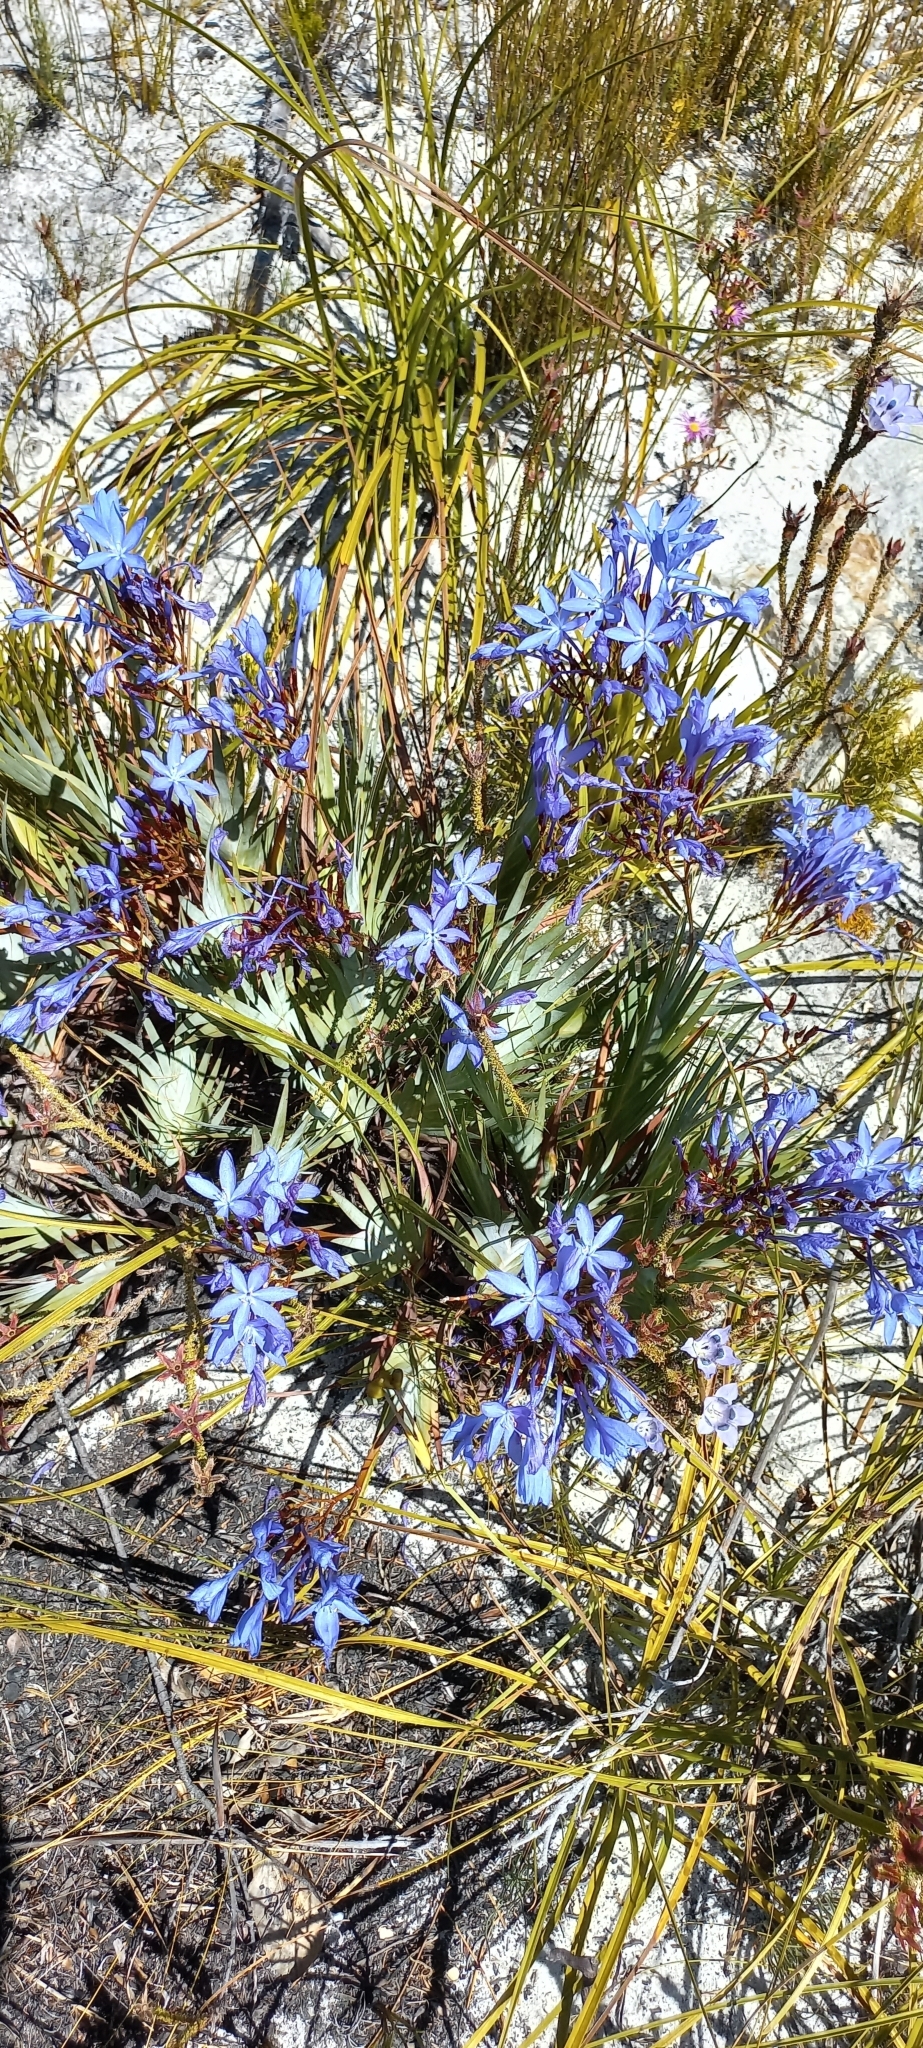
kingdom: Plantae
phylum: Tracheophyta
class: Liliopsida
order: Asparagales
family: Iridaceae
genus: Nivenia
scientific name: Nivenia stokoei
